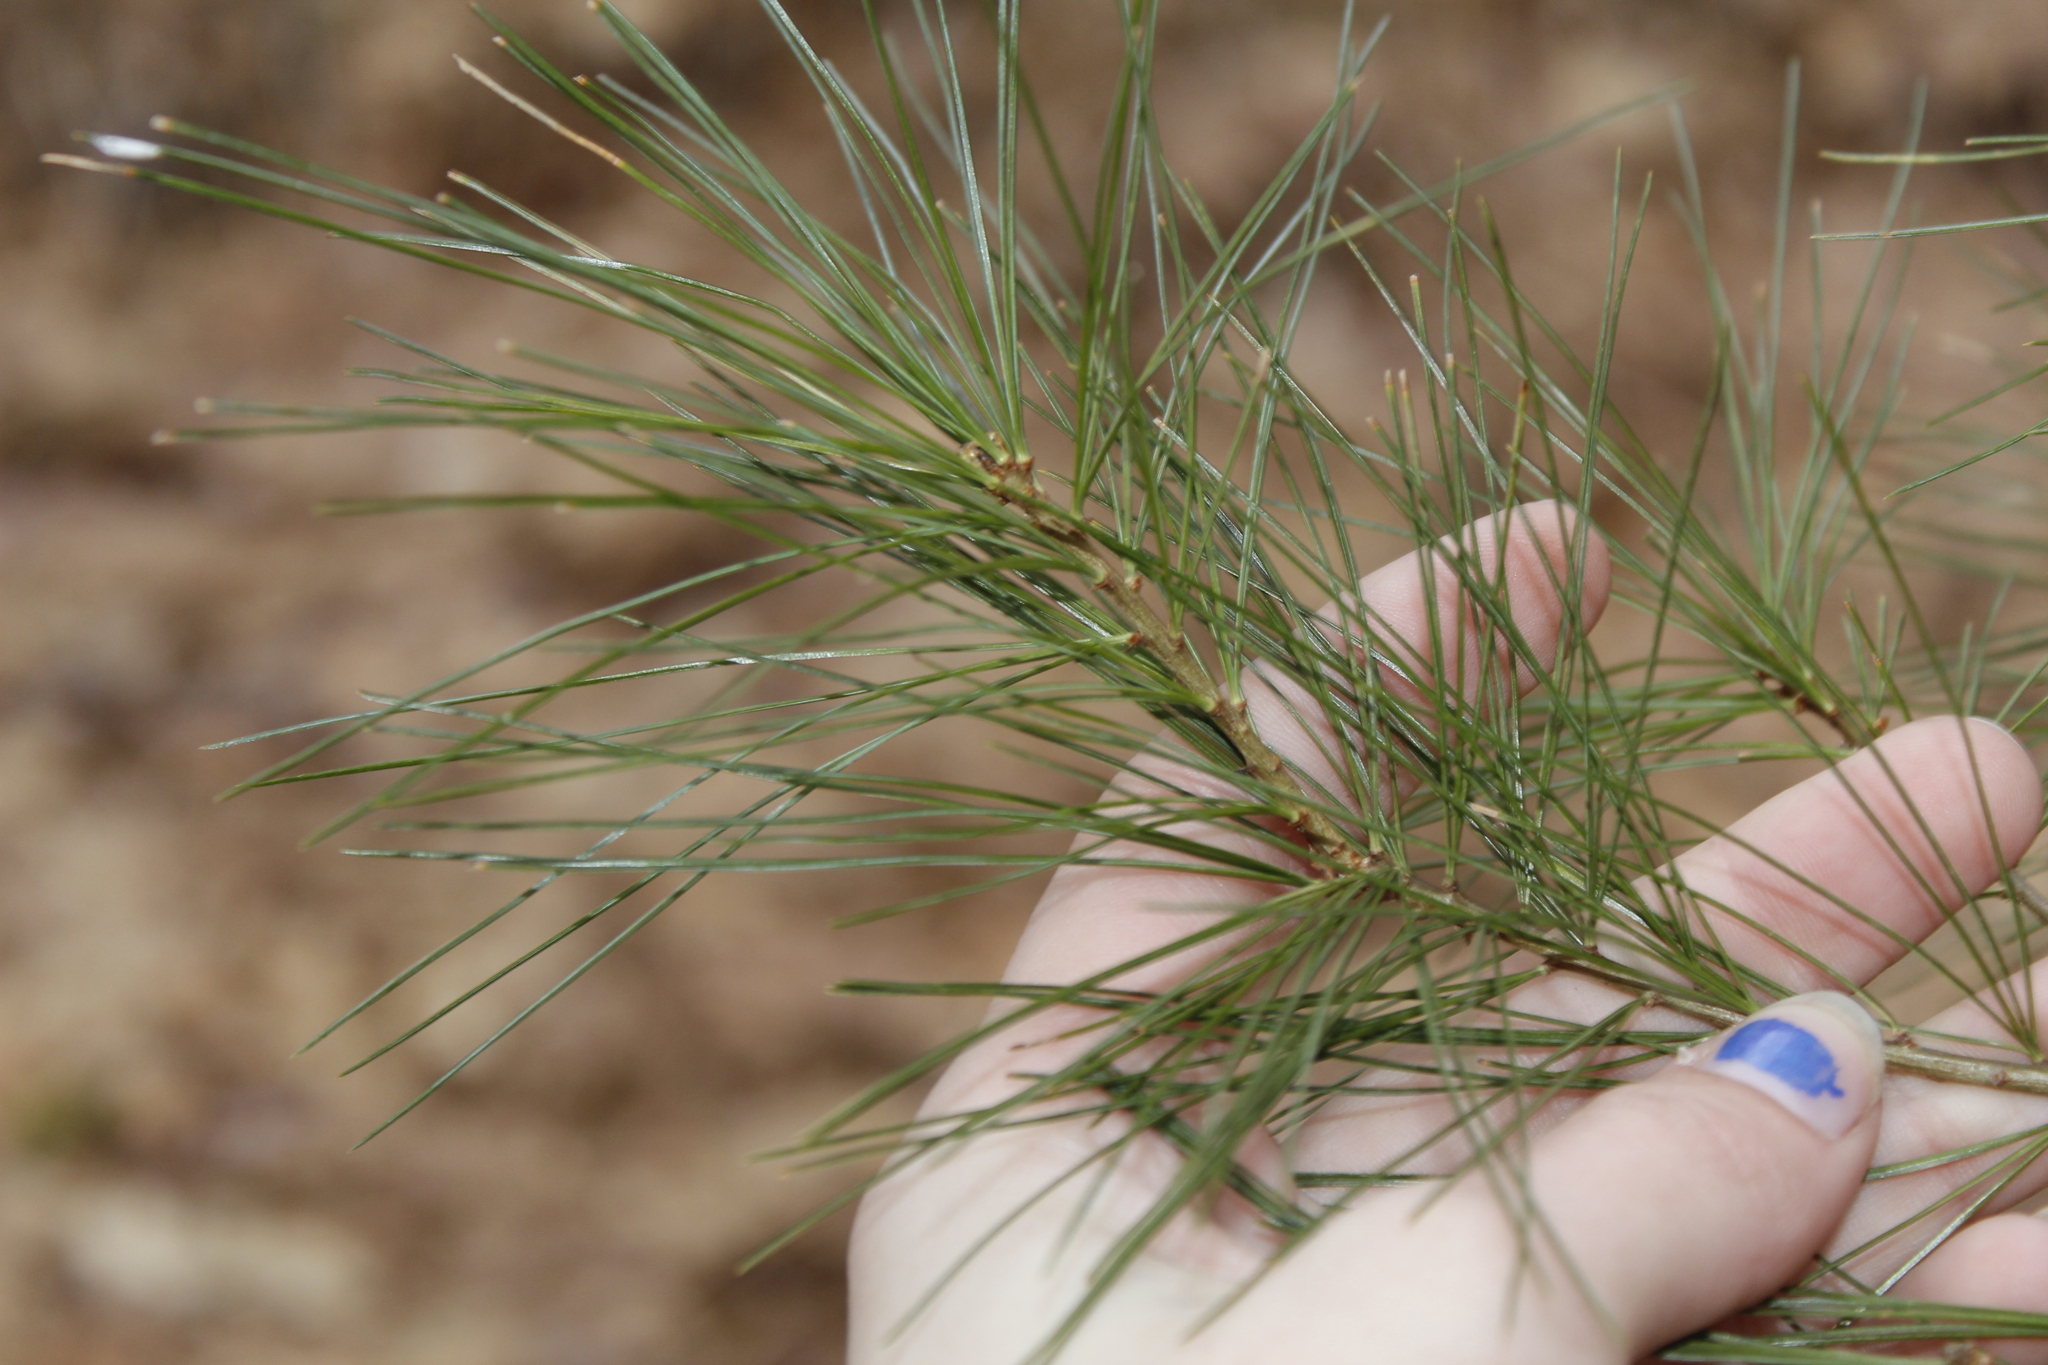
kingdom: Plantae
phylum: Tracheophyta
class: Pinopsida
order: Pinales
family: Pinaceae
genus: Pinus
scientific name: Pinus strobus
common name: Weymouth pine
